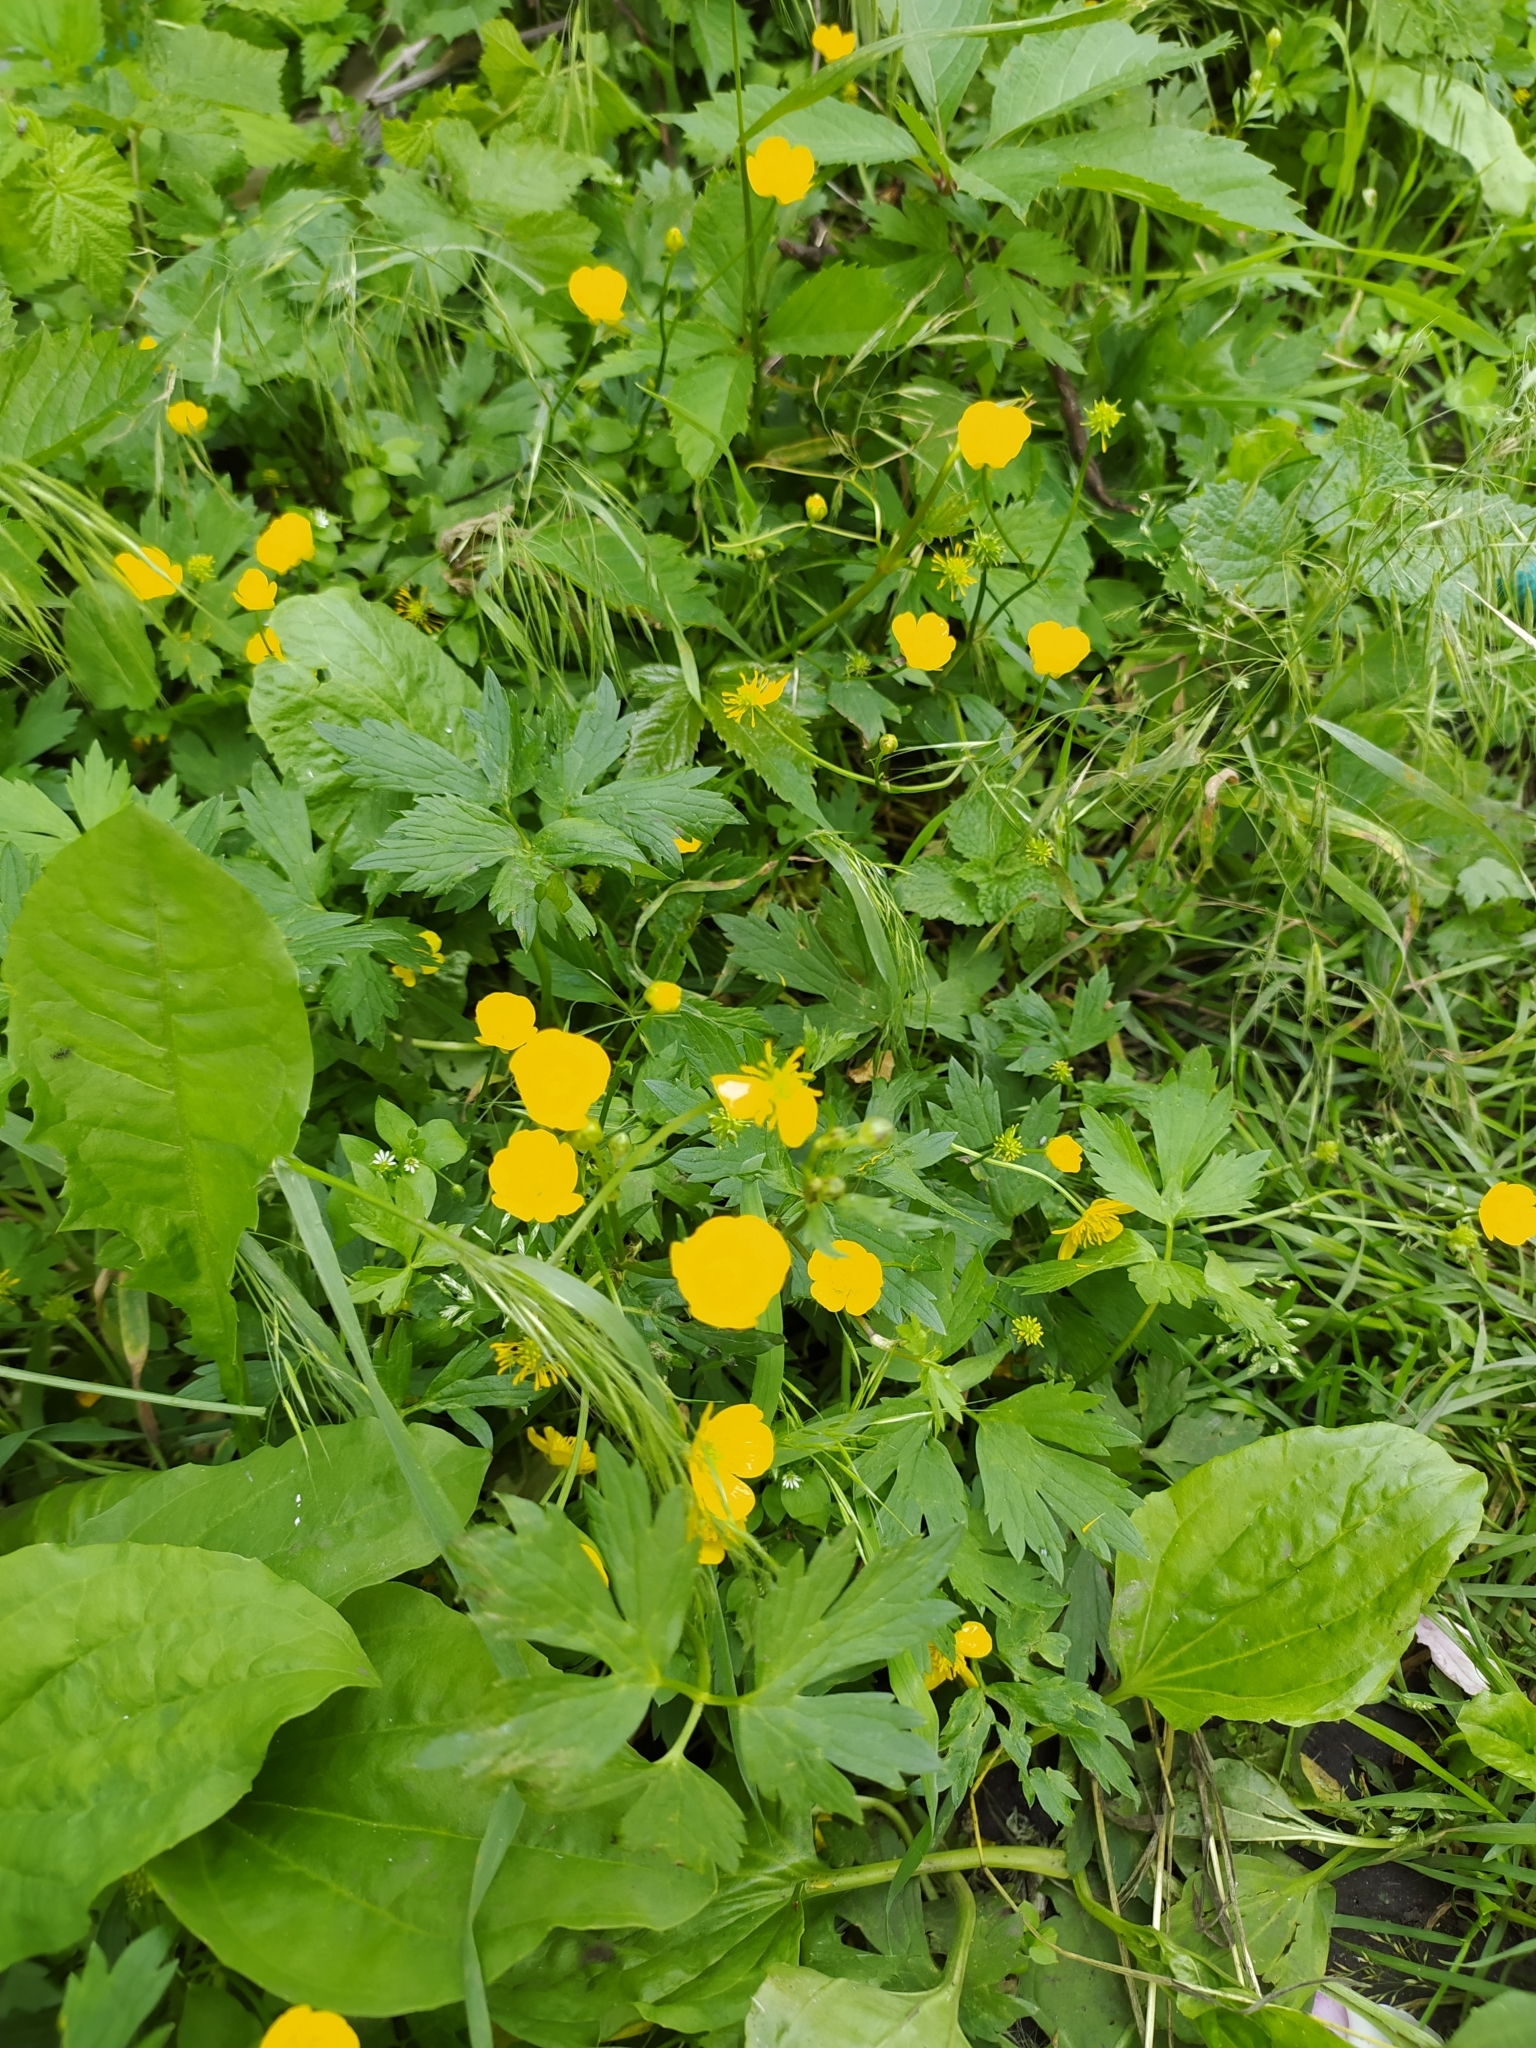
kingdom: Plantae
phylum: Tracheophyta
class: Magnoliopsida
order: Ranunculales
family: Ranunculaceae
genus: Ranunculus
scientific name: Ranunculus repens
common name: Creeping buttercup
